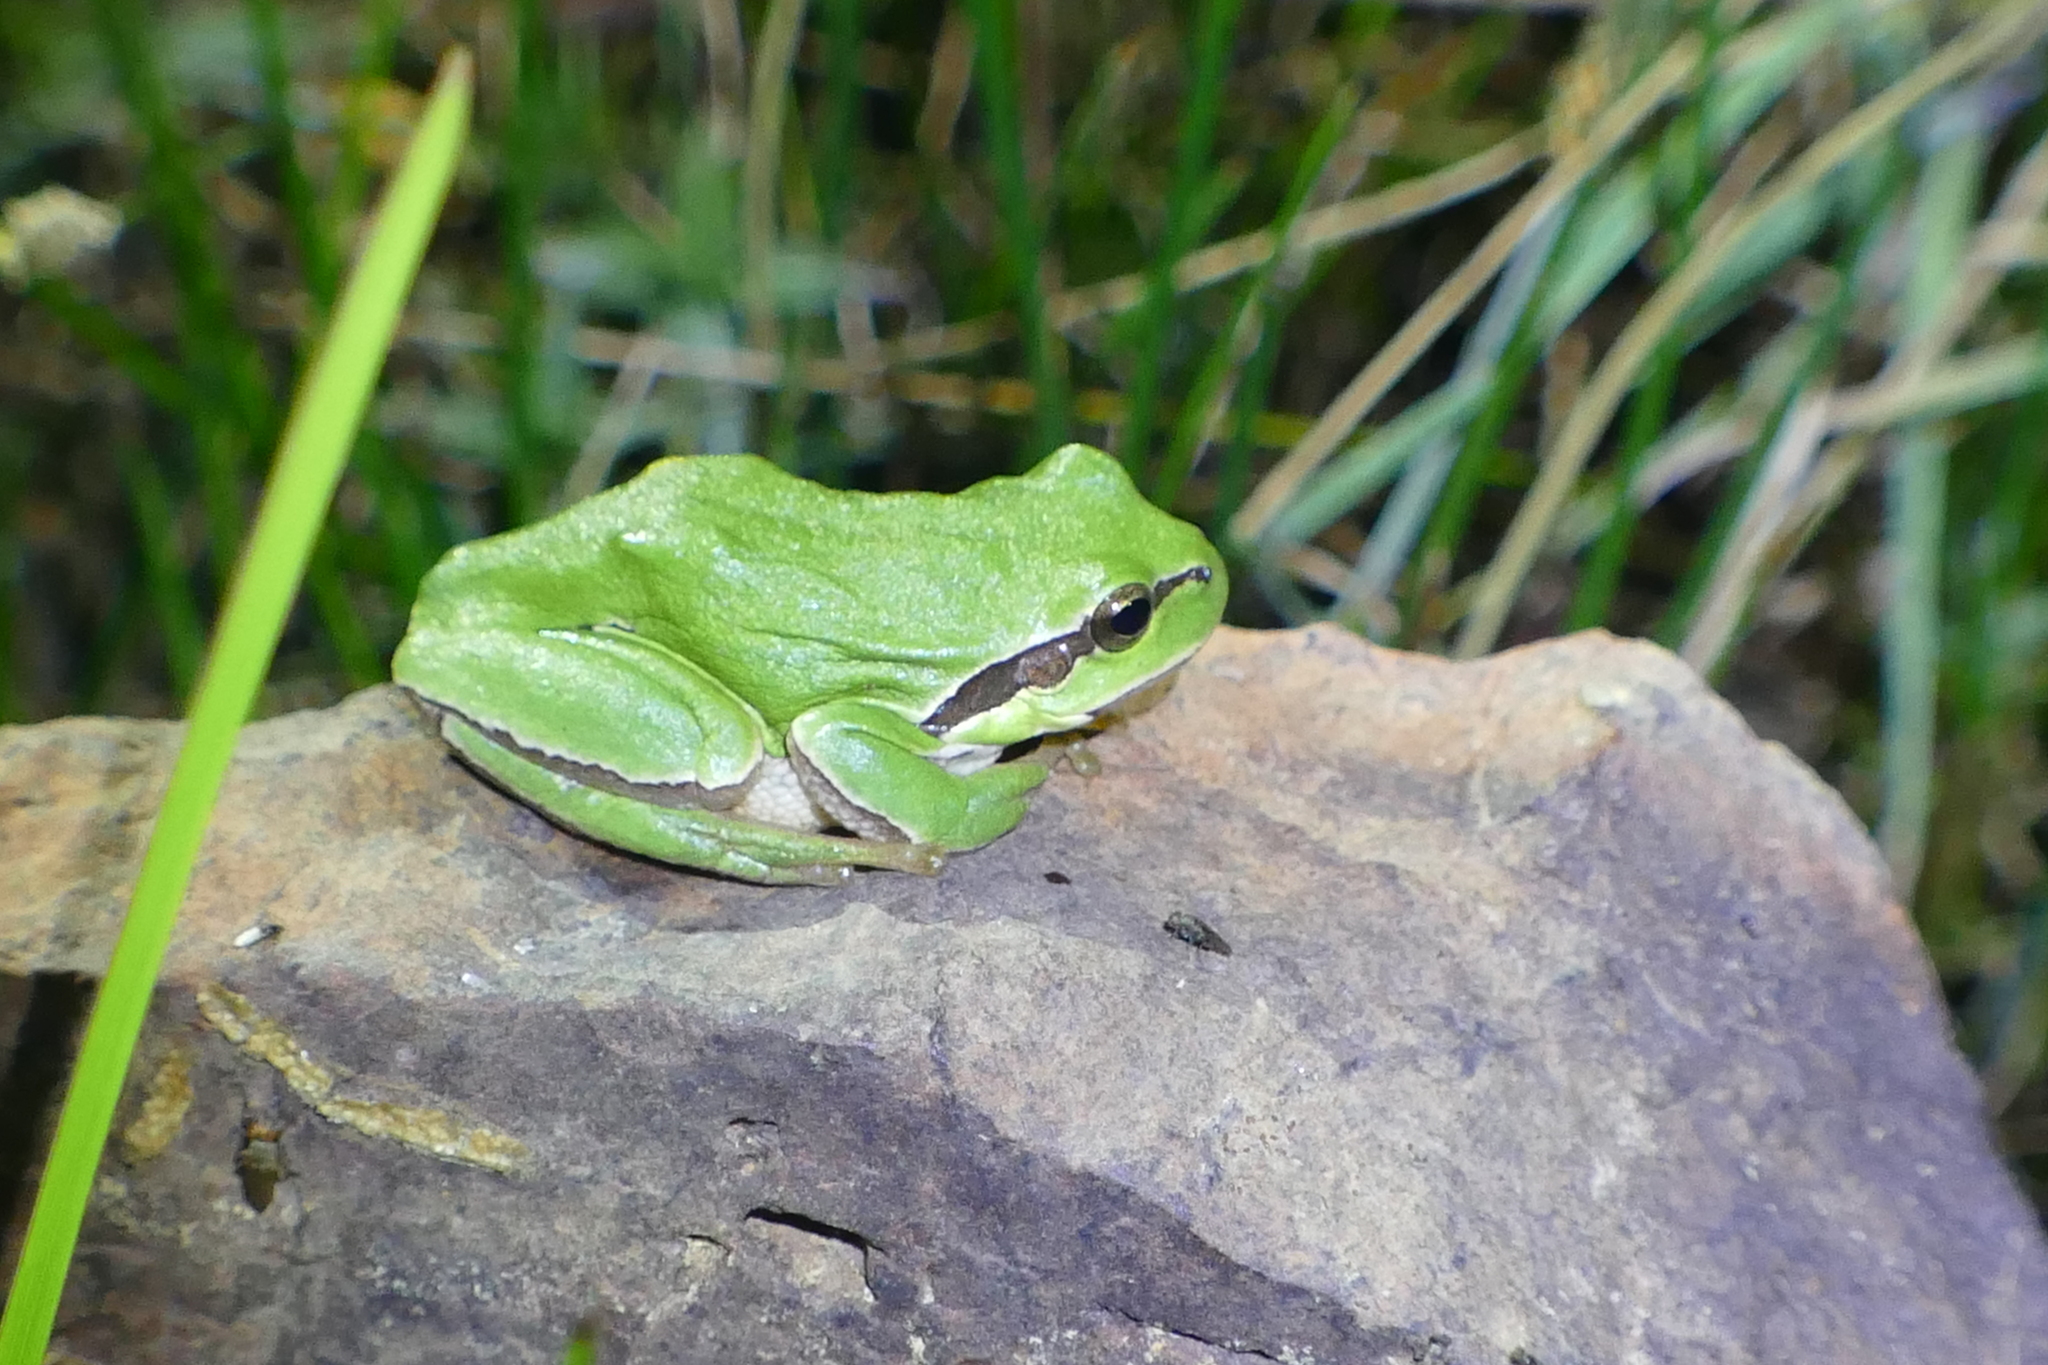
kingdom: Animalia
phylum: Chordata
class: Amphibia
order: Anura
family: Hylidae
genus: Hyla
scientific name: Hyla molleri
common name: Iberian tree frog
